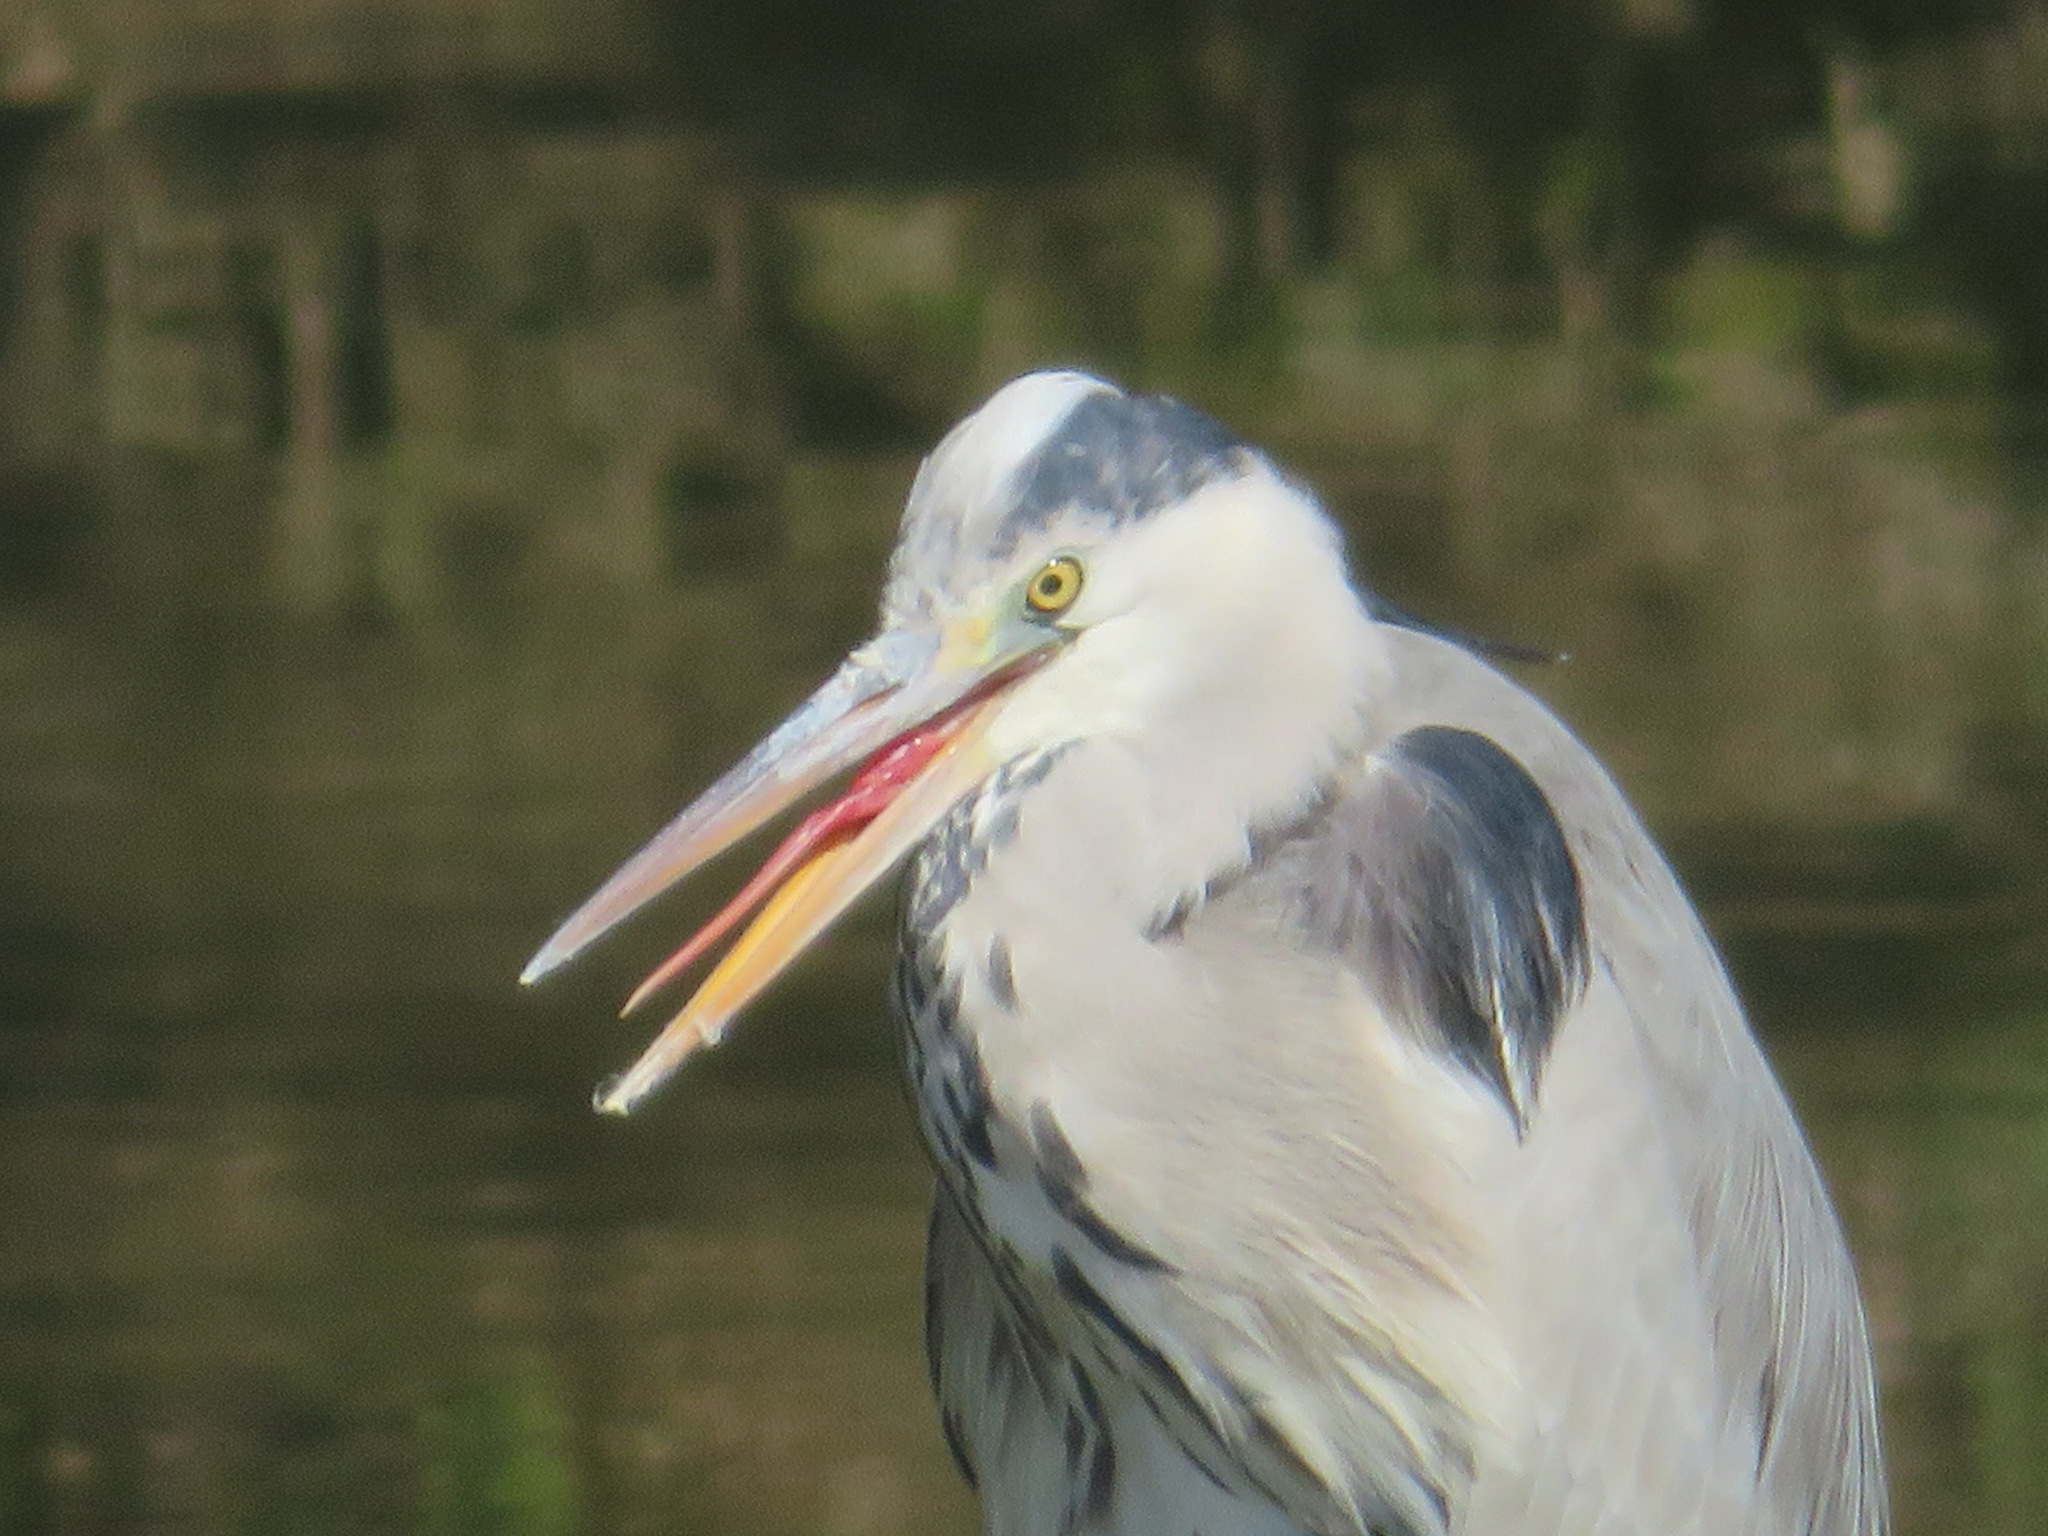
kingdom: Animalia
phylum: Chordata
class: Aves
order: Pelecaniformes
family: Ardeidae
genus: Ardea
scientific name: Ardea cinerea
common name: Grey heron
